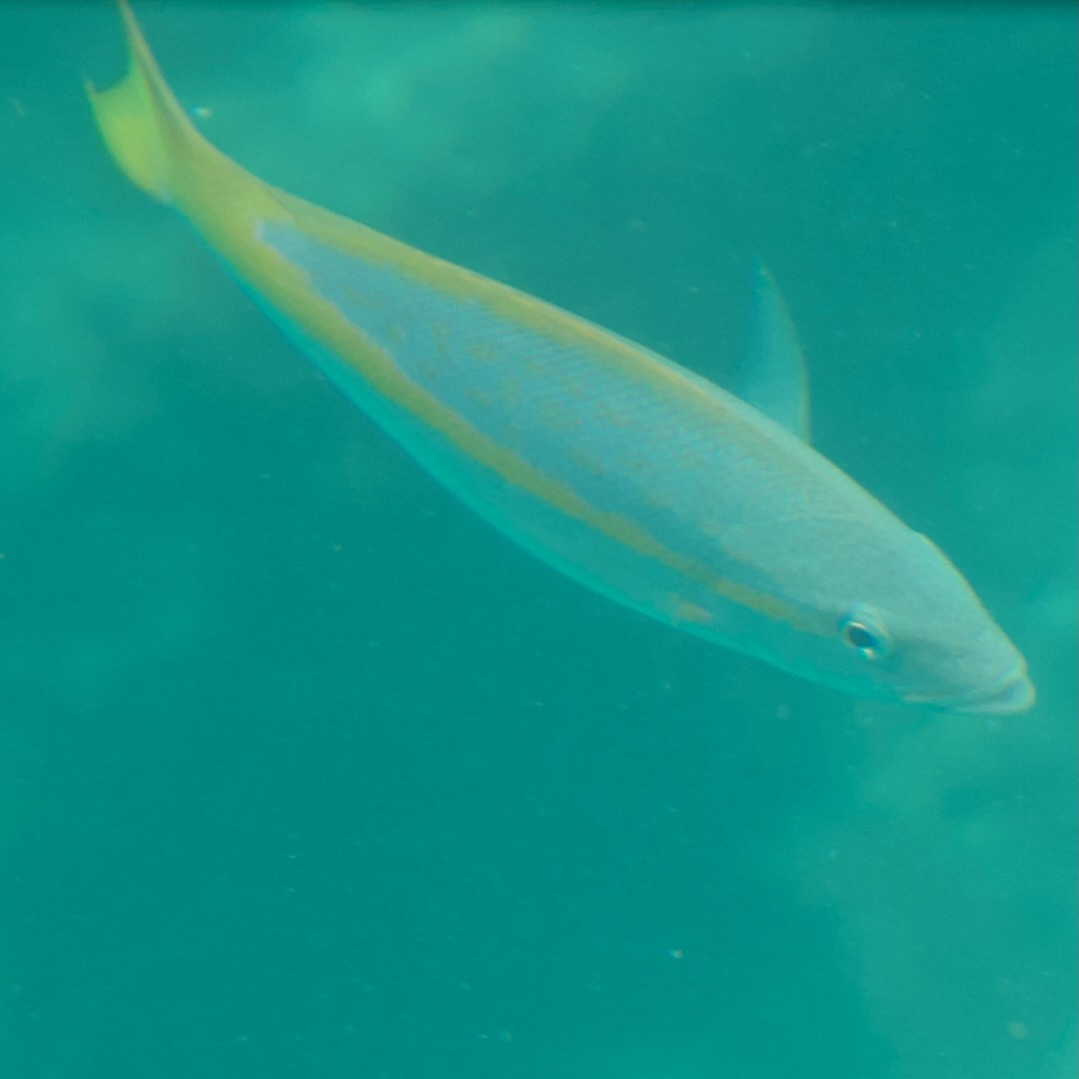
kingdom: Animalia
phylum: Chordata
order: Perciformes
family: Lutjanidae
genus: Ocyurus
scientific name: Ocyurus chrysurus
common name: Yellowtail snapper
